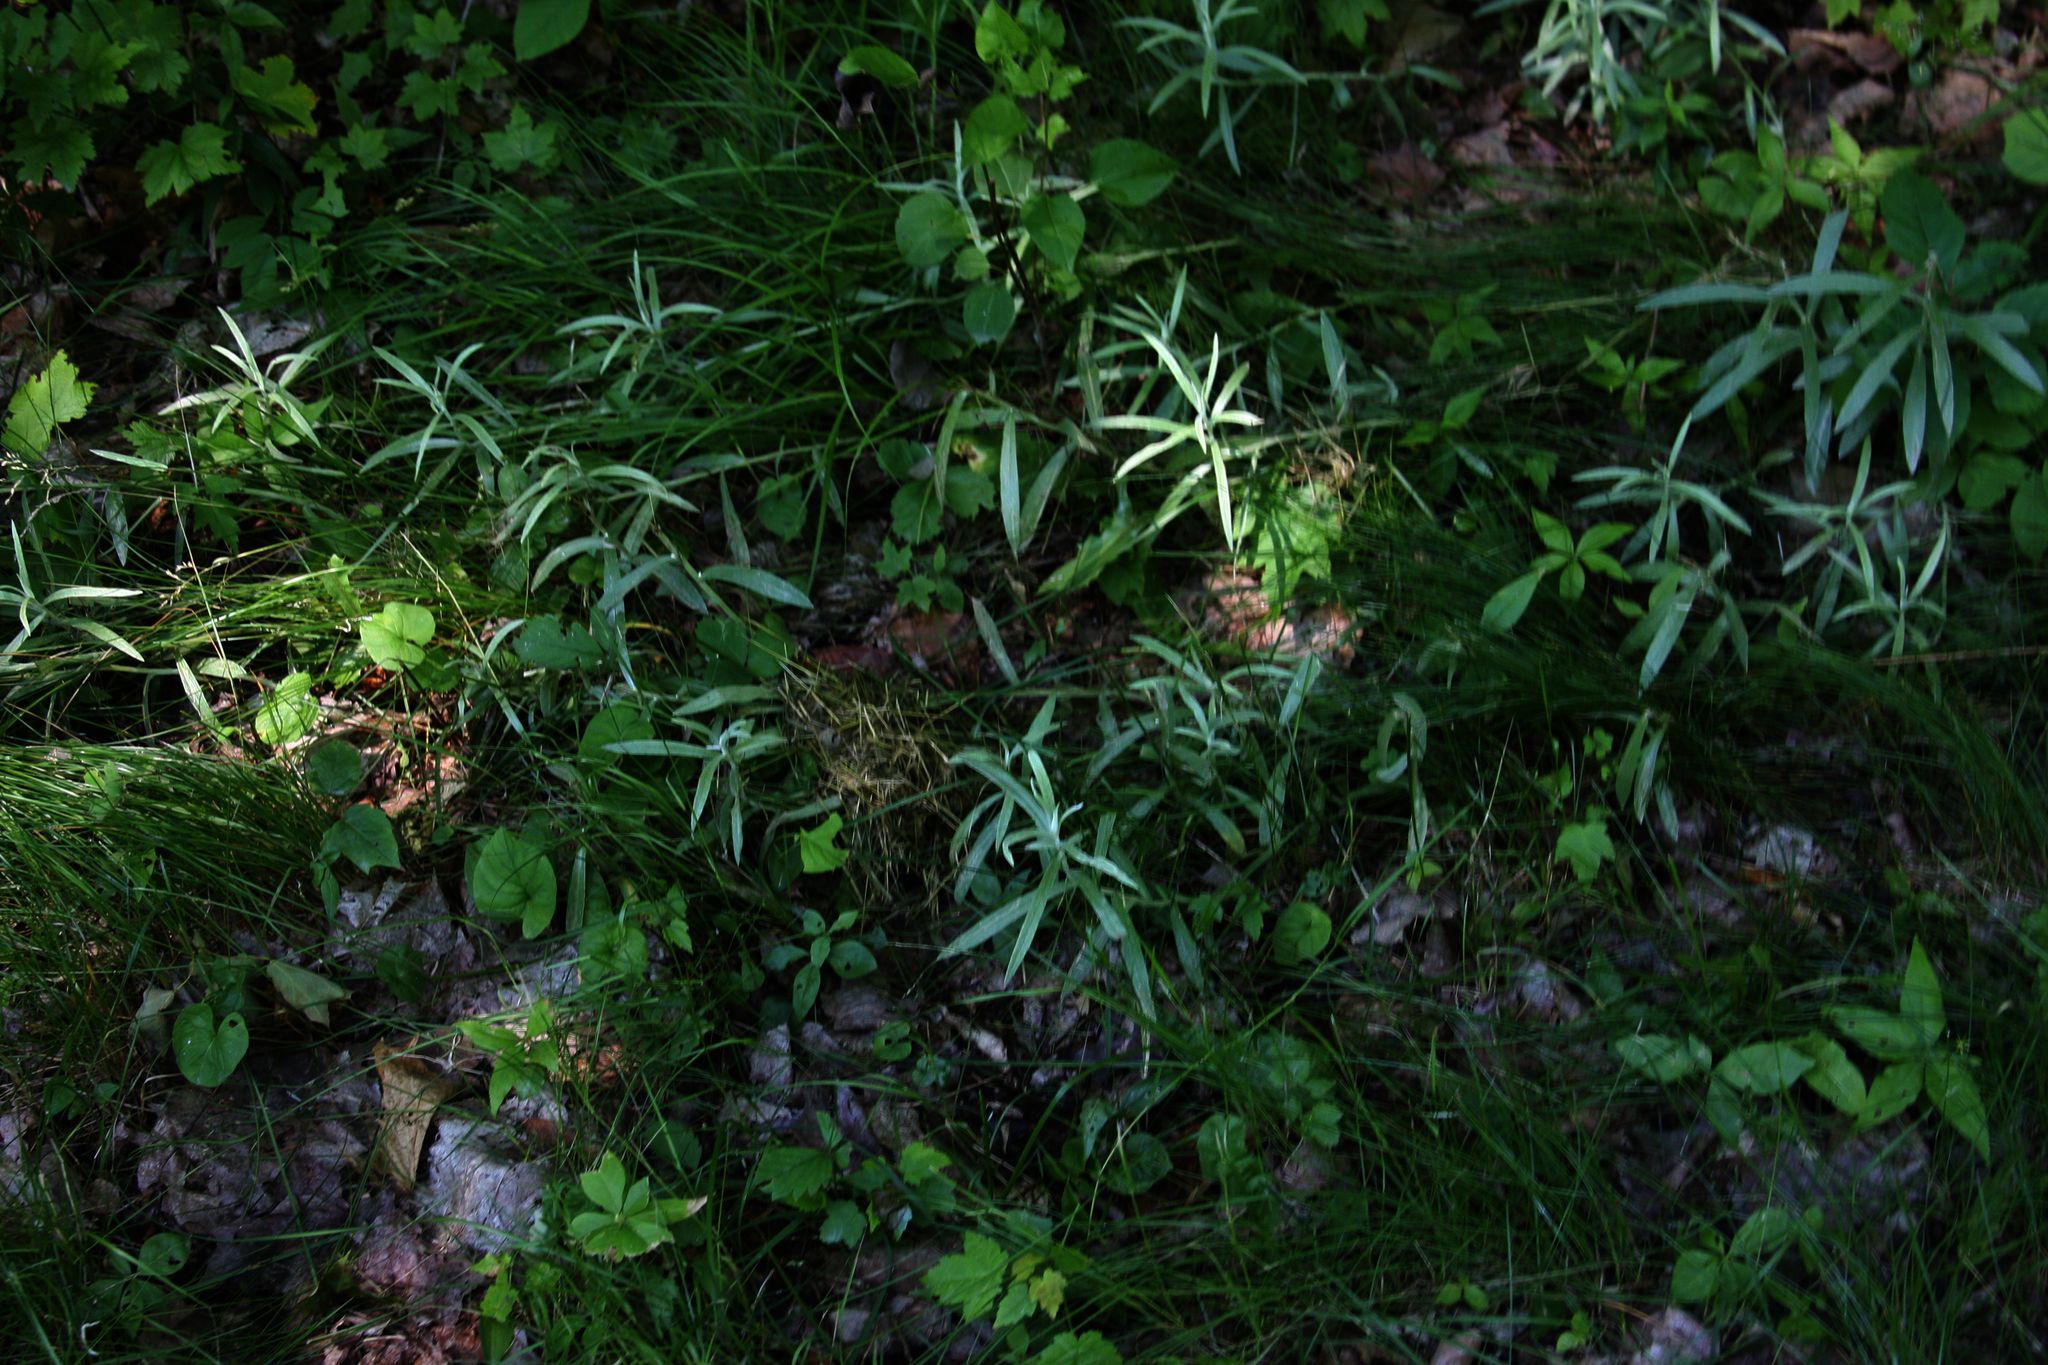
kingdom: Plantae
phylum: Tracheophyta
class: Magnoliopsida
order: Asterales
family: Asteraceae
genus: Anaphalis
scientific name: Anaphalis margaritacea
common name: Pearly everlasting
